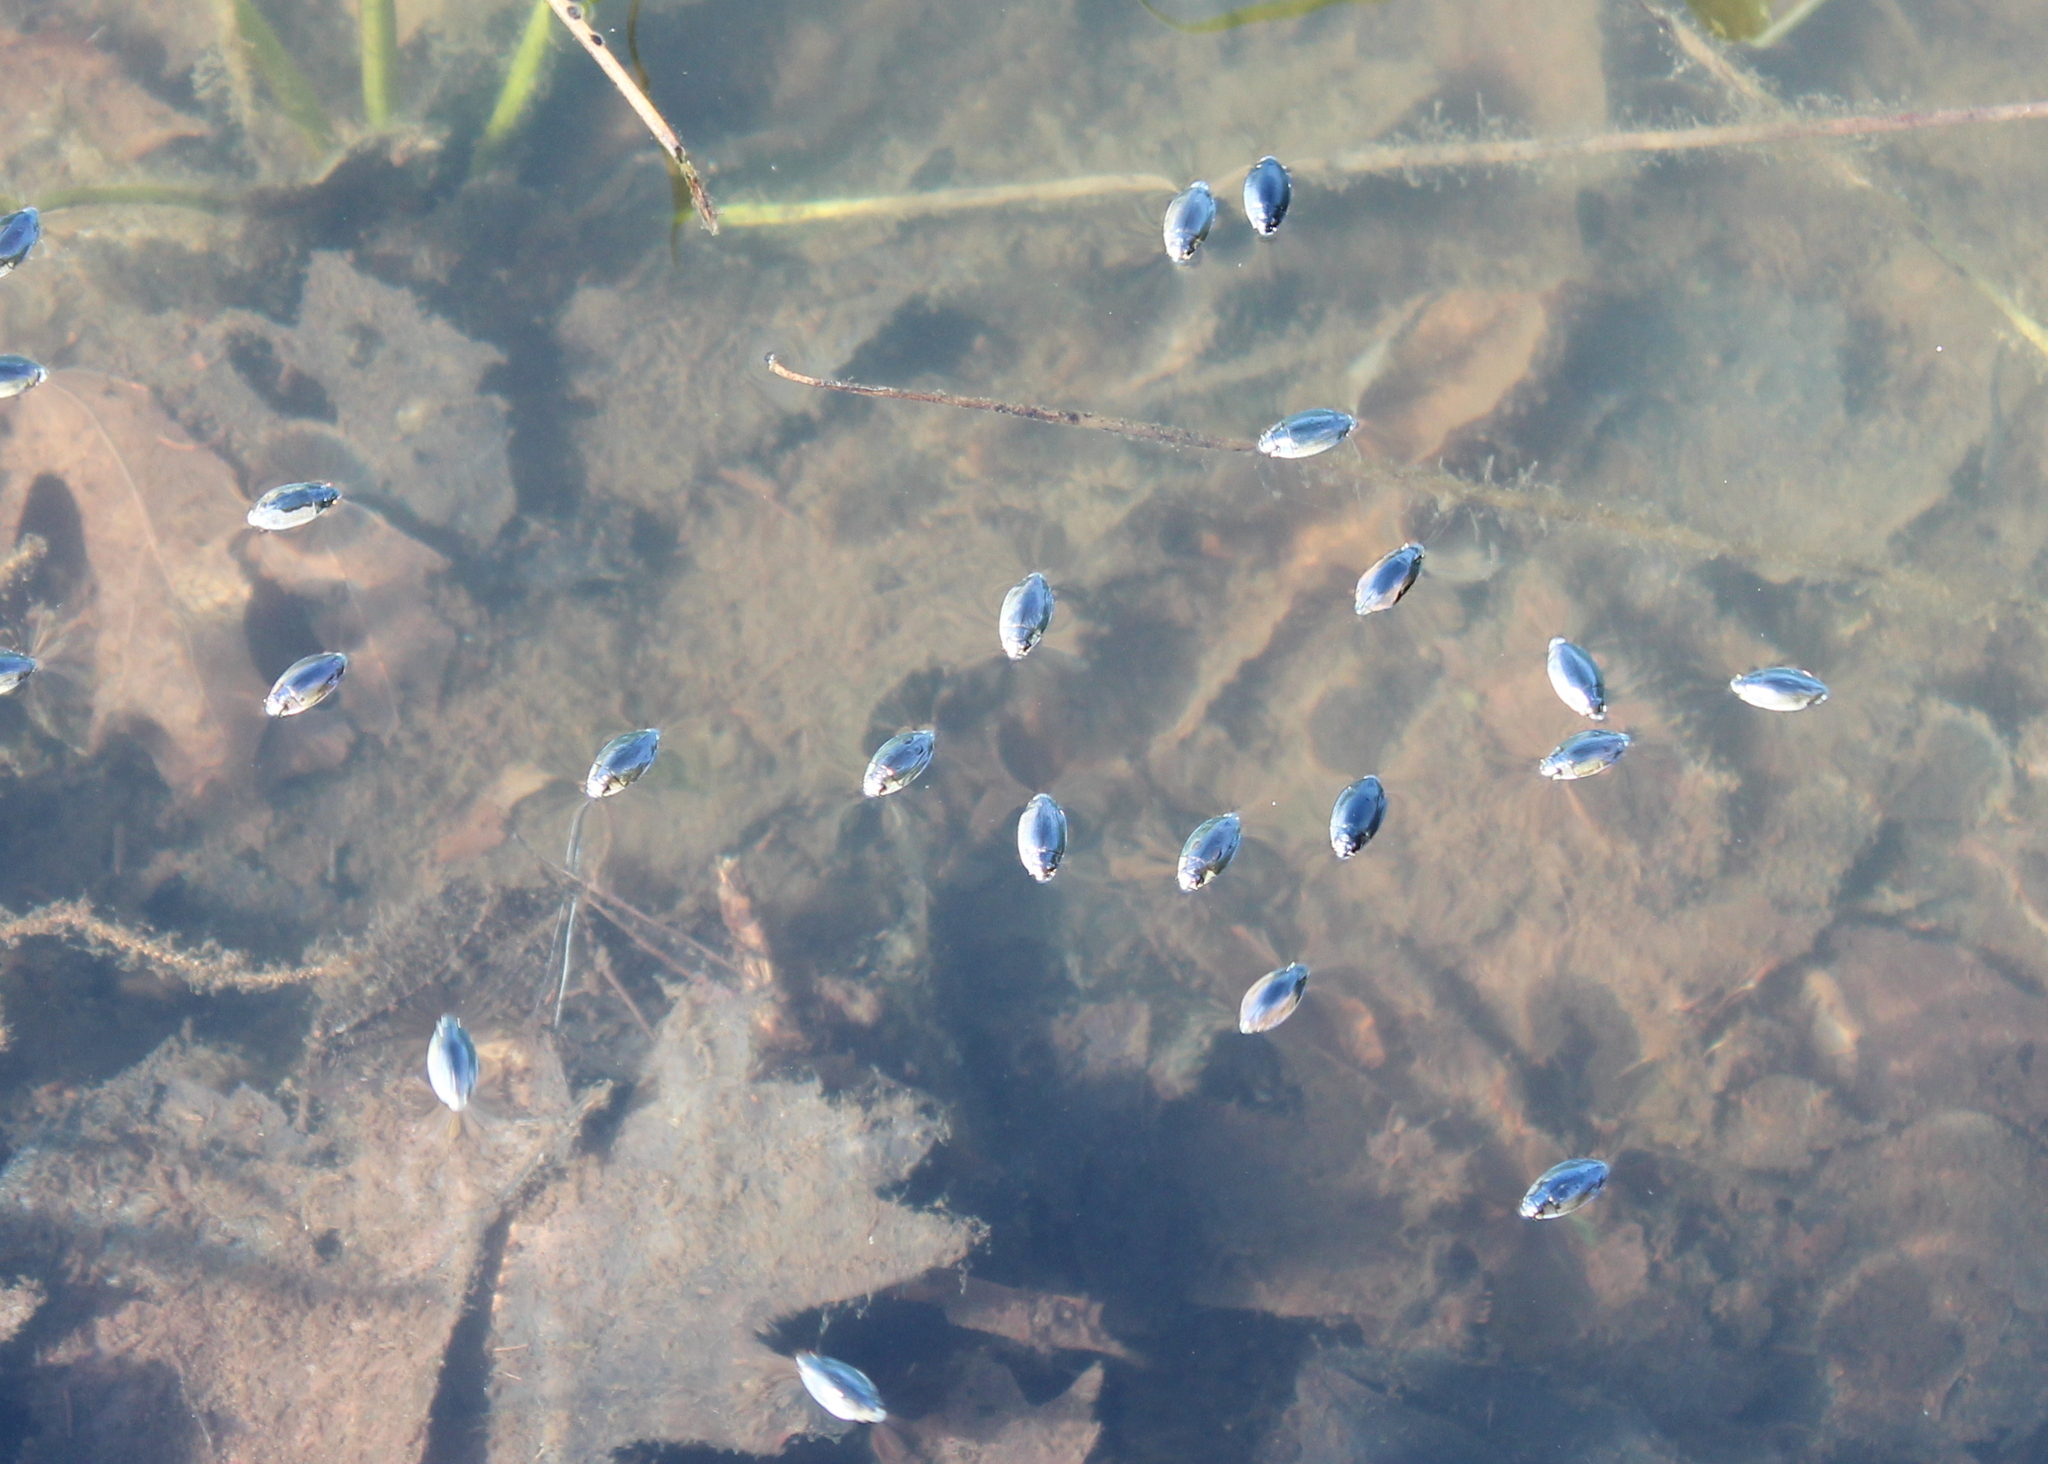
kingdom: Animalia
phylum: Arthropoda
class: Insecta
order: Coleoptera
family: Gyrinidae
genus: Dineutus
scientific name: Dineutus
